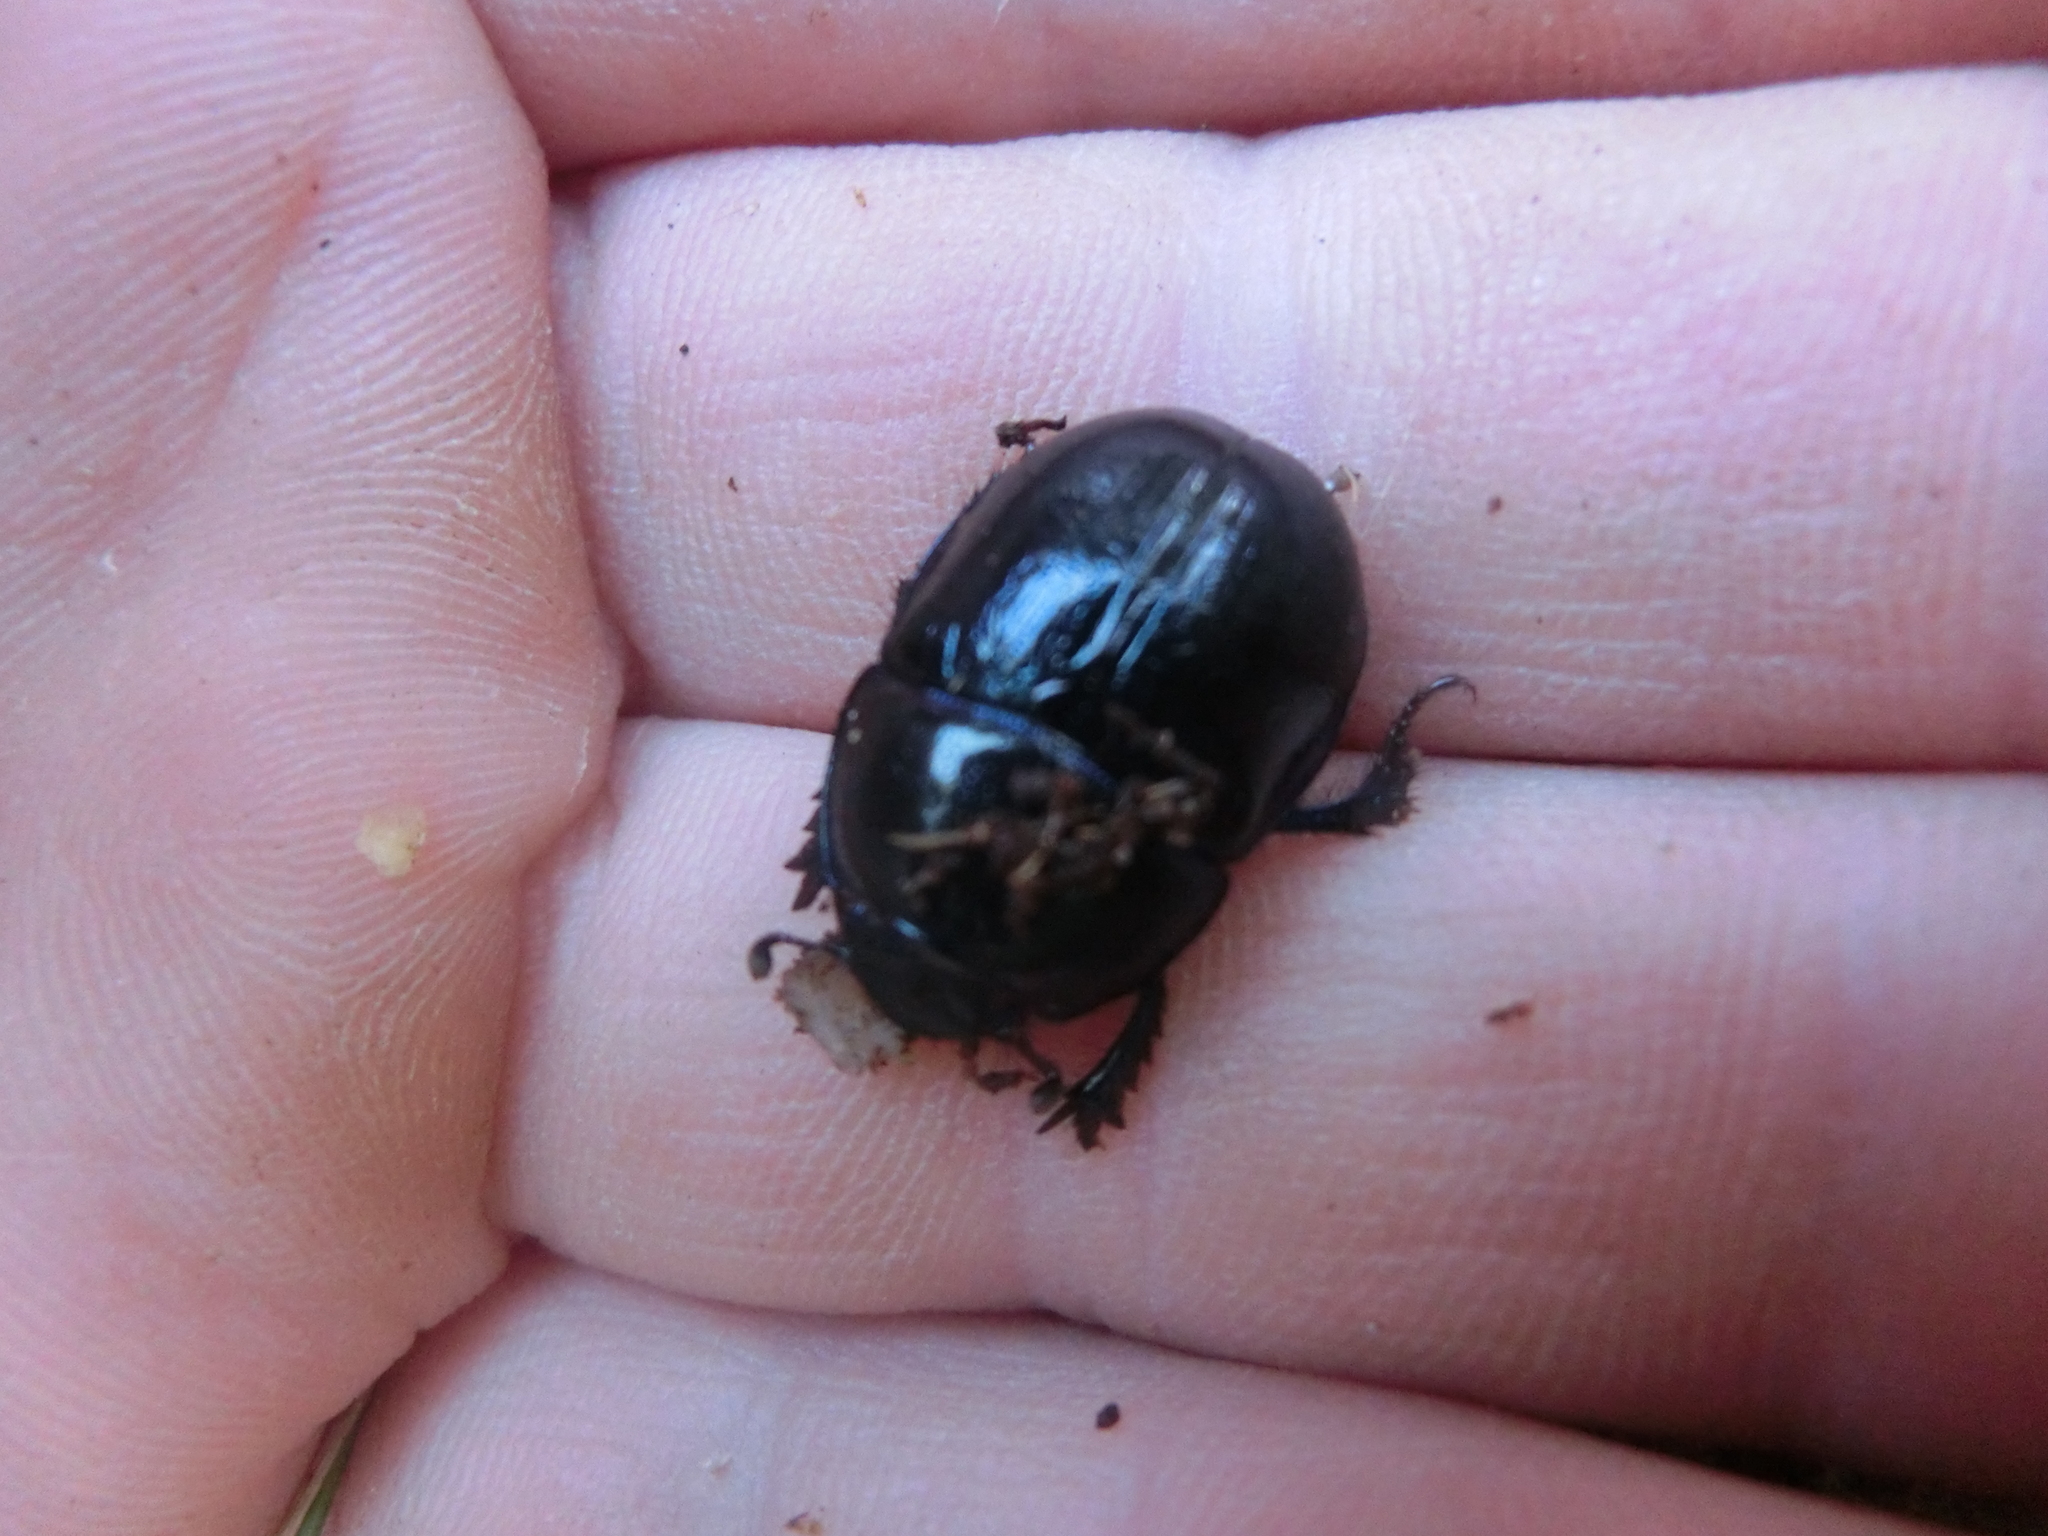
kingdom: Animalia
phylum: Arthropoda
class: Insecta
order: Coleoptera
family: Geotrupidae
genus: Anoplotrupes
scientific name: Anoplotrupes stercorosus
